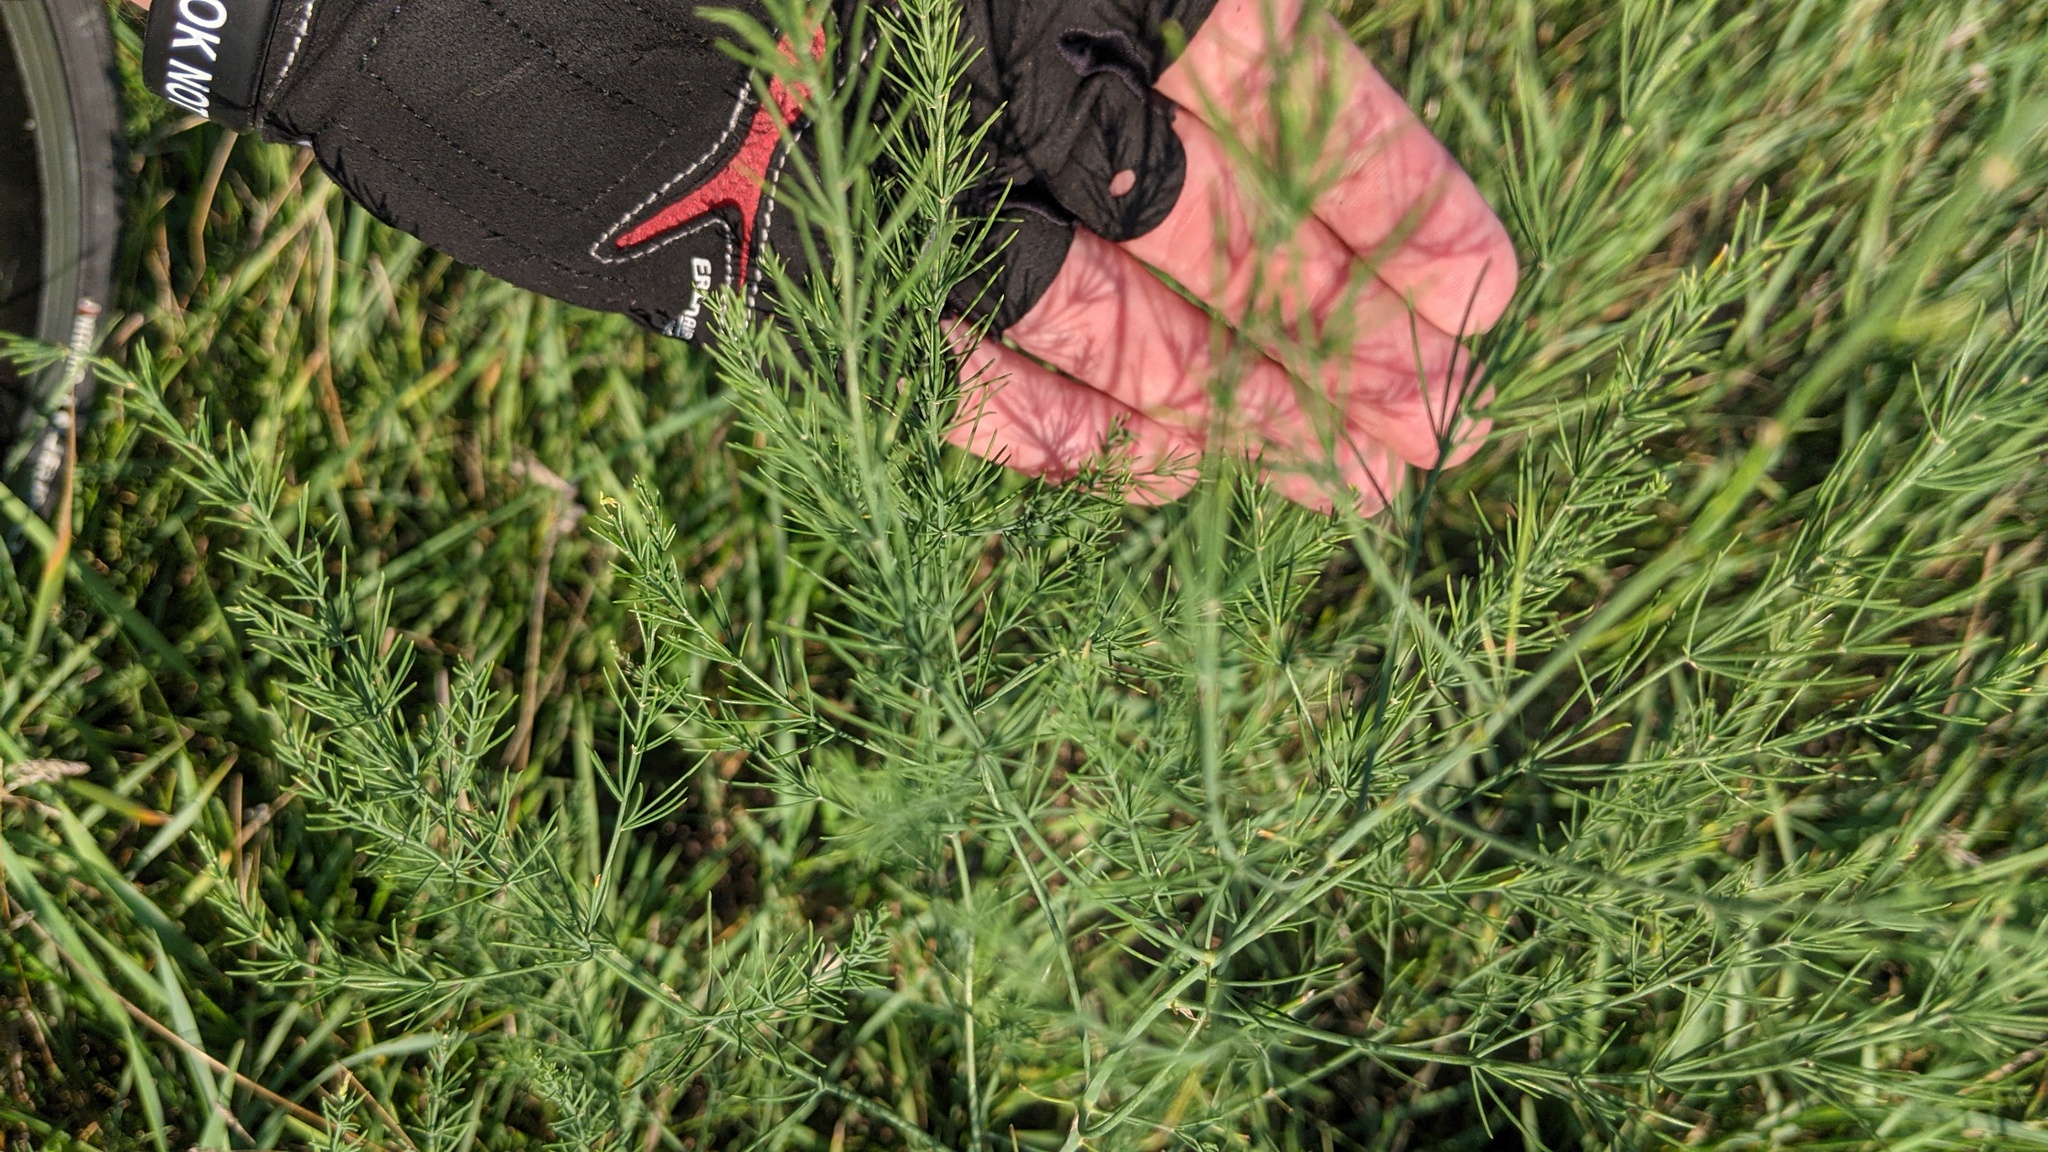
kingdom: Plantae
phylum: Tracheophyta
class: Liliopsida
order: Asparagales
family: Asparagaceae
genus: Asparagus
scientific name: Asparagus officinalis
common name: Garden asparagus
